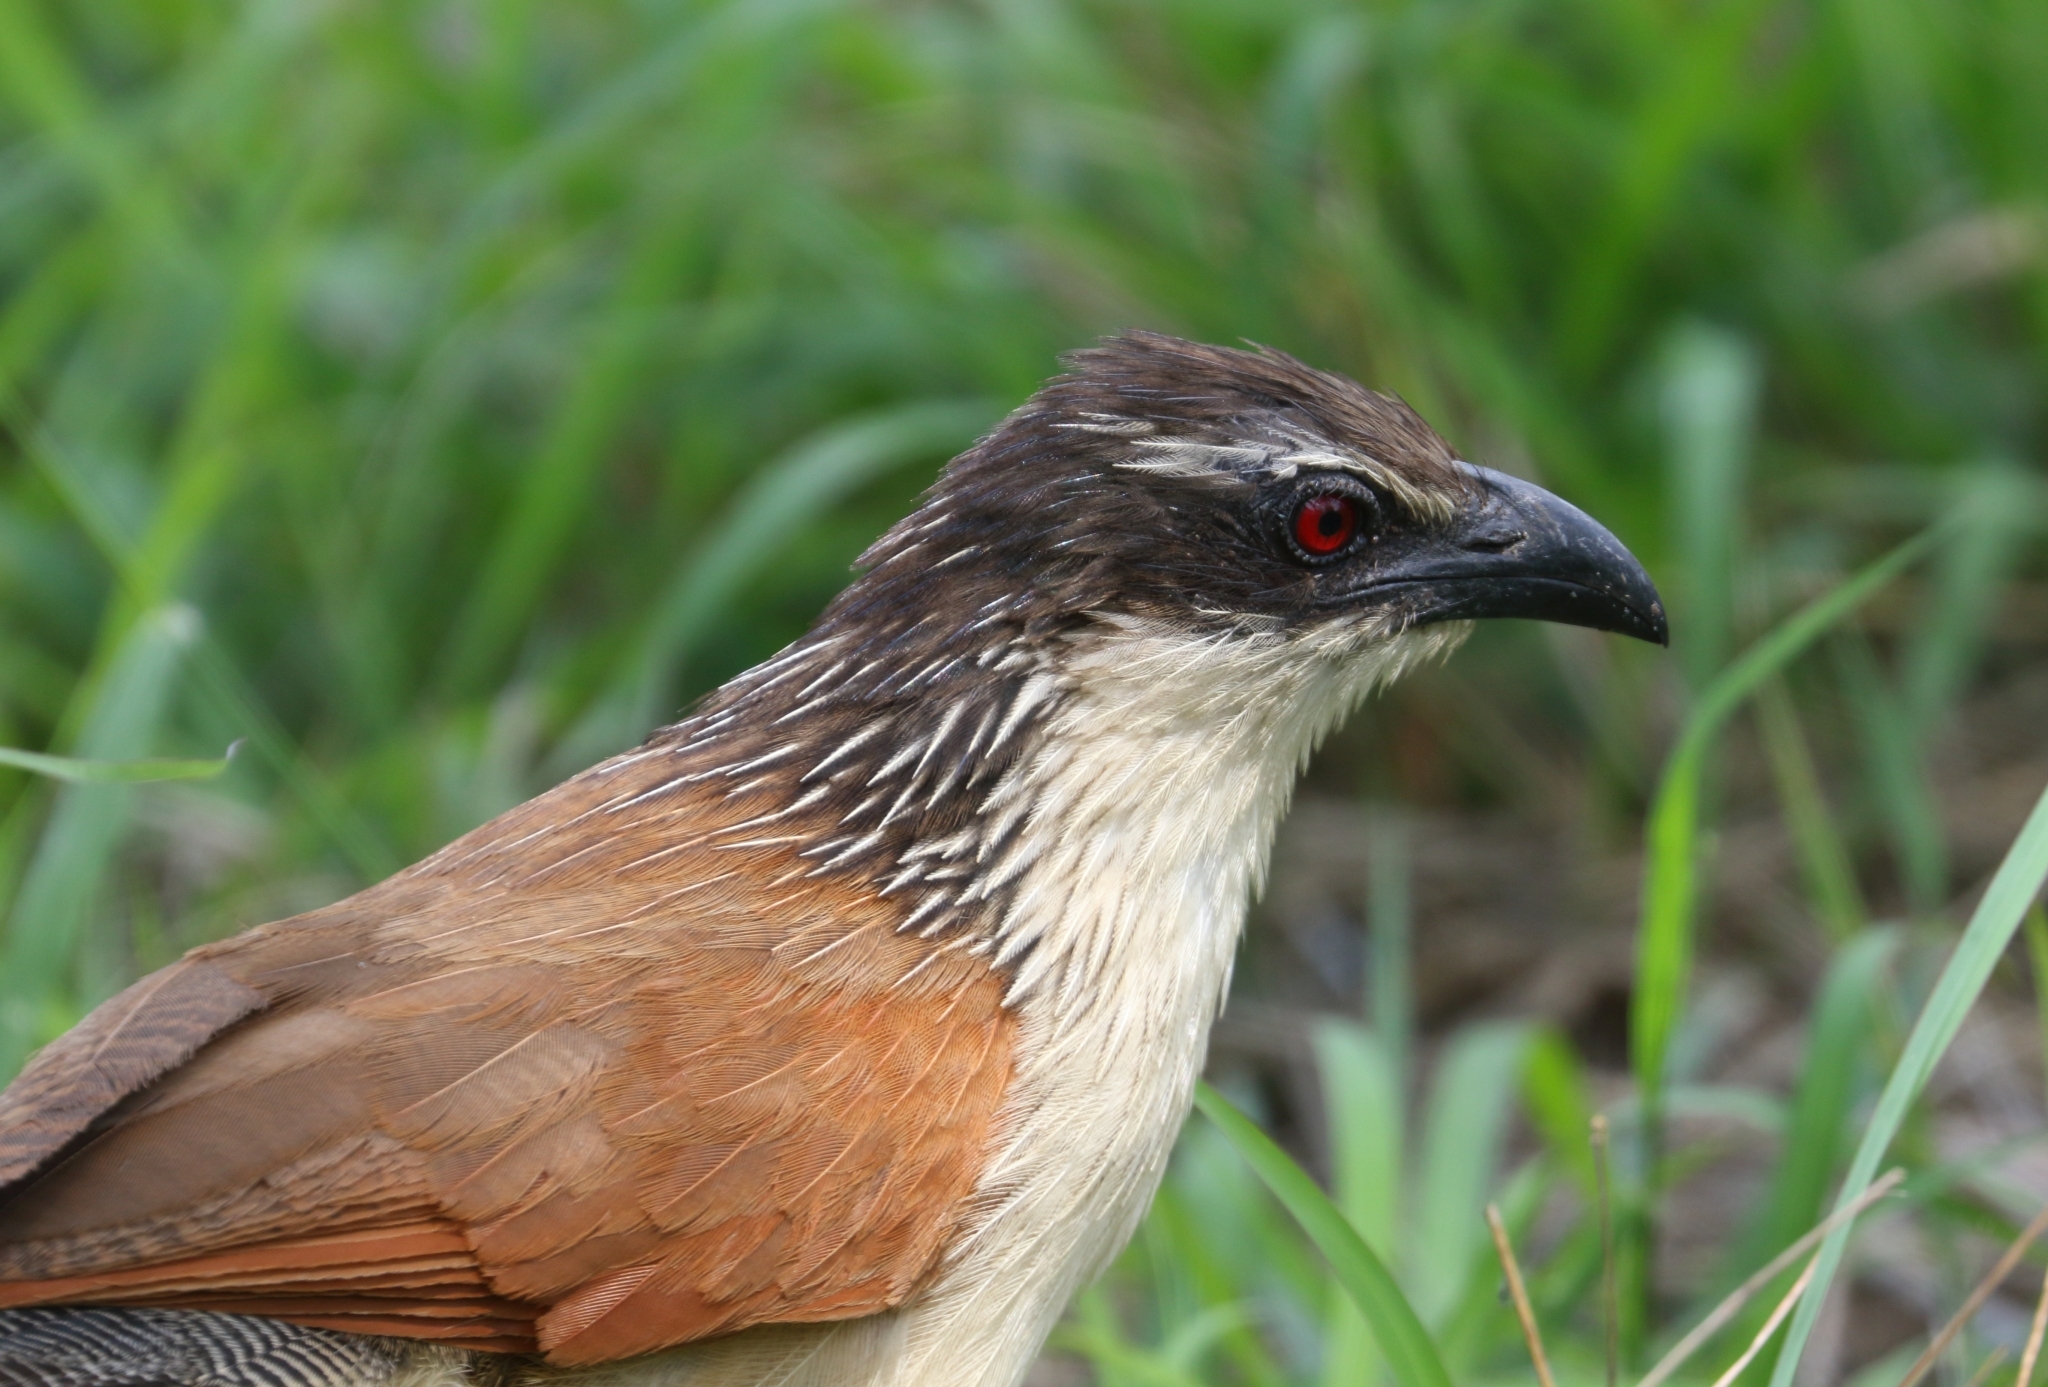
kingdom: Animalia
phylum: Chordata
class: Aves
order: Cuculiformes
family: Cuculidae
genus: Centropus
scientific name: Centropus superciliosus
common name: White-browed coucal
